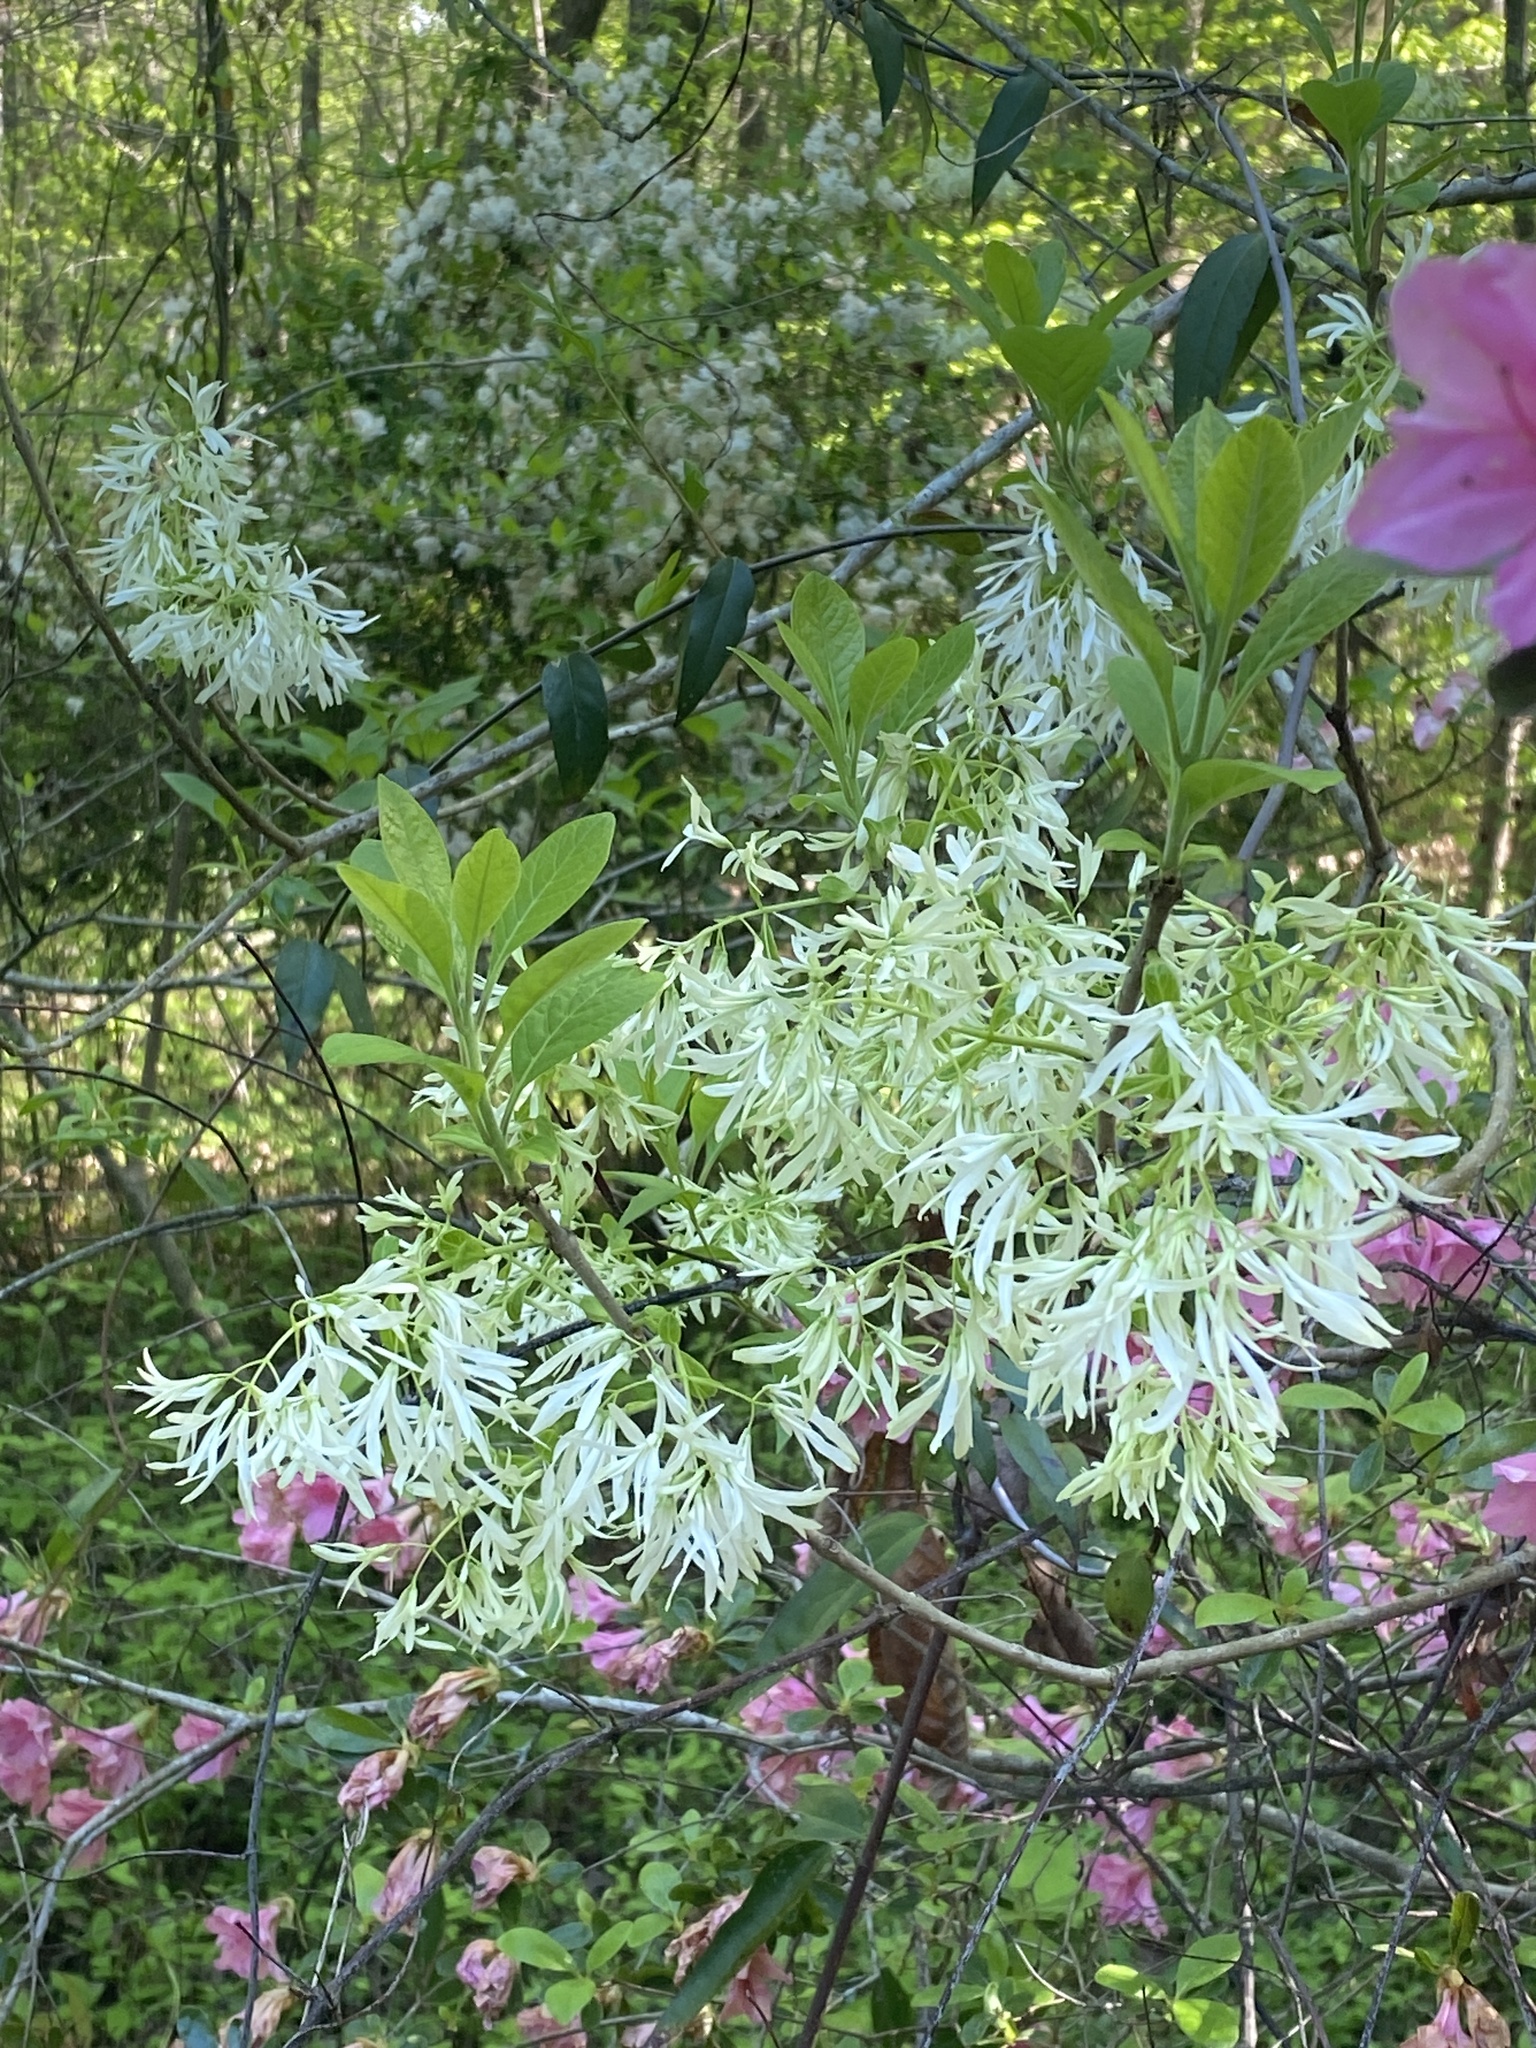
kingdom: Plantae
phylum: Tracheophyta
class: Magnoliopsida
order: Lamiales
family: Oleaceae
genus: Chionanthus
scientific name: Chionanthus virginicus
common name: American fringetree
